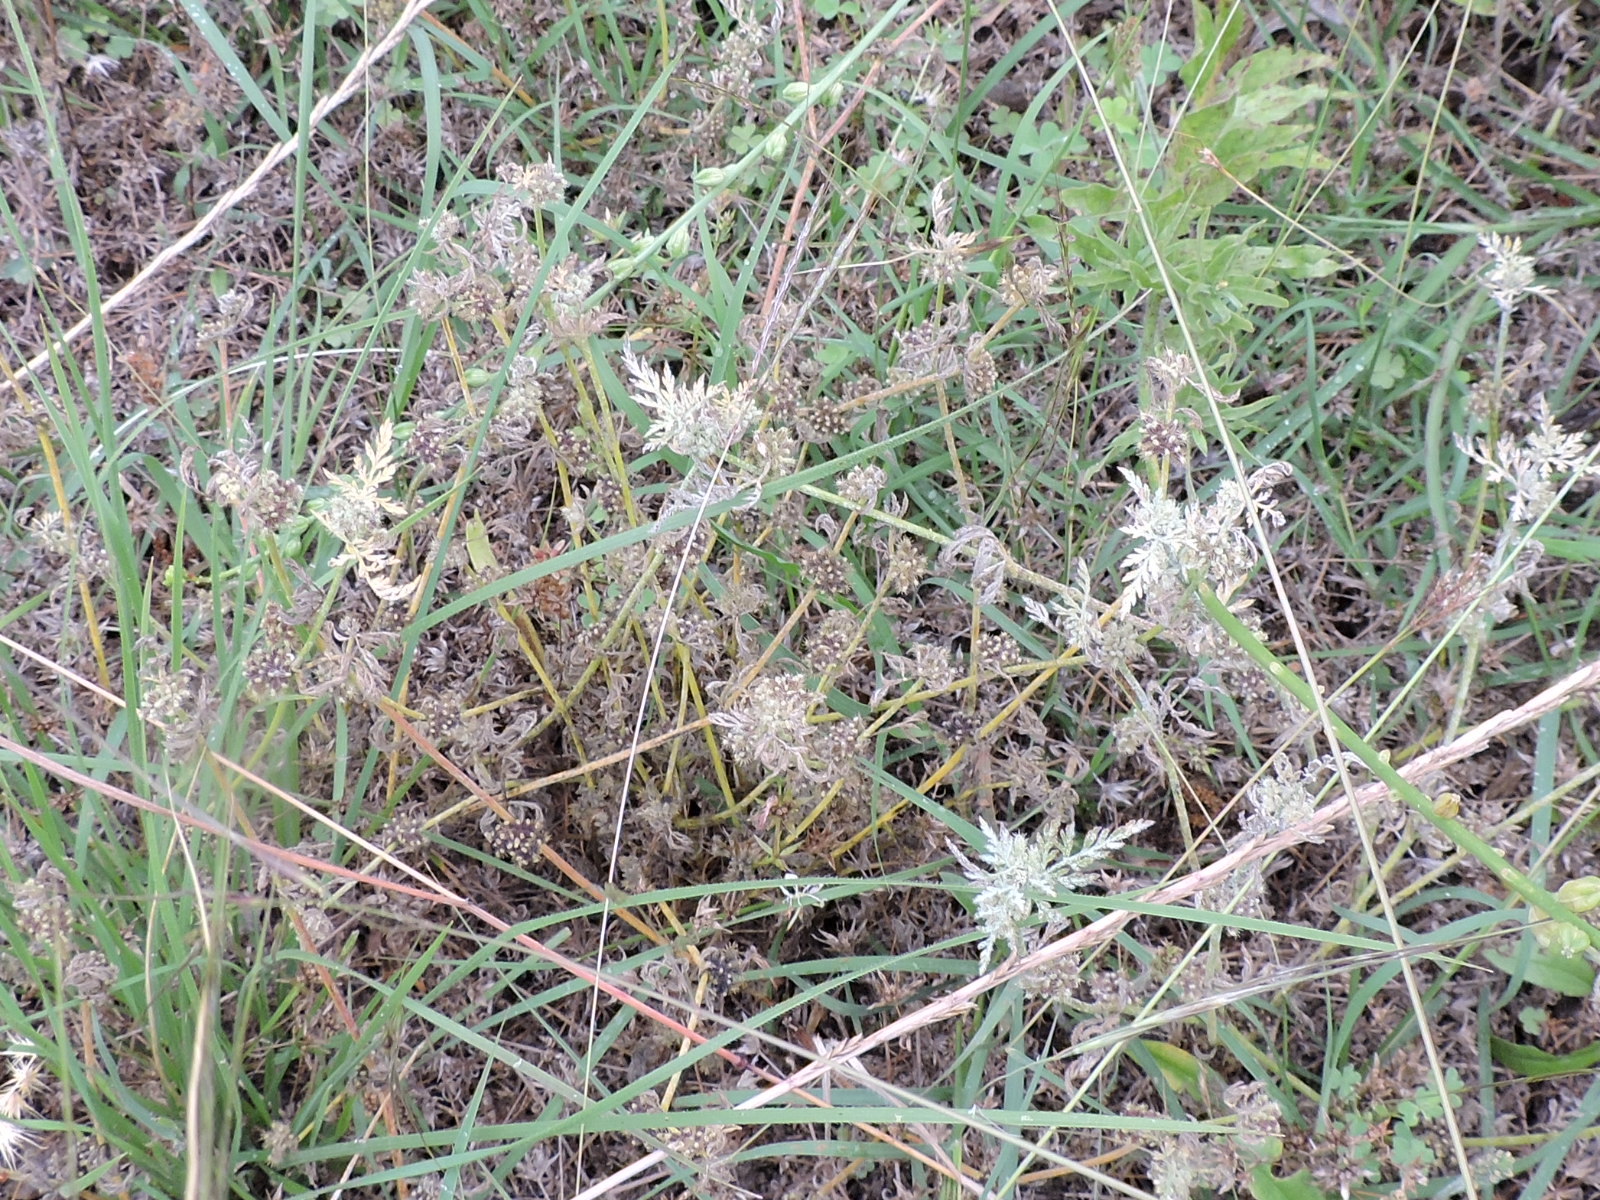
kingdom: Plantae
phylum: Tracheophyta
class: Magnoliopsida
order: Apiales
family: Apiaceae
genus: Torilis
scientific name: Torilis nodosa
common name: Knotted hedge-parsley
